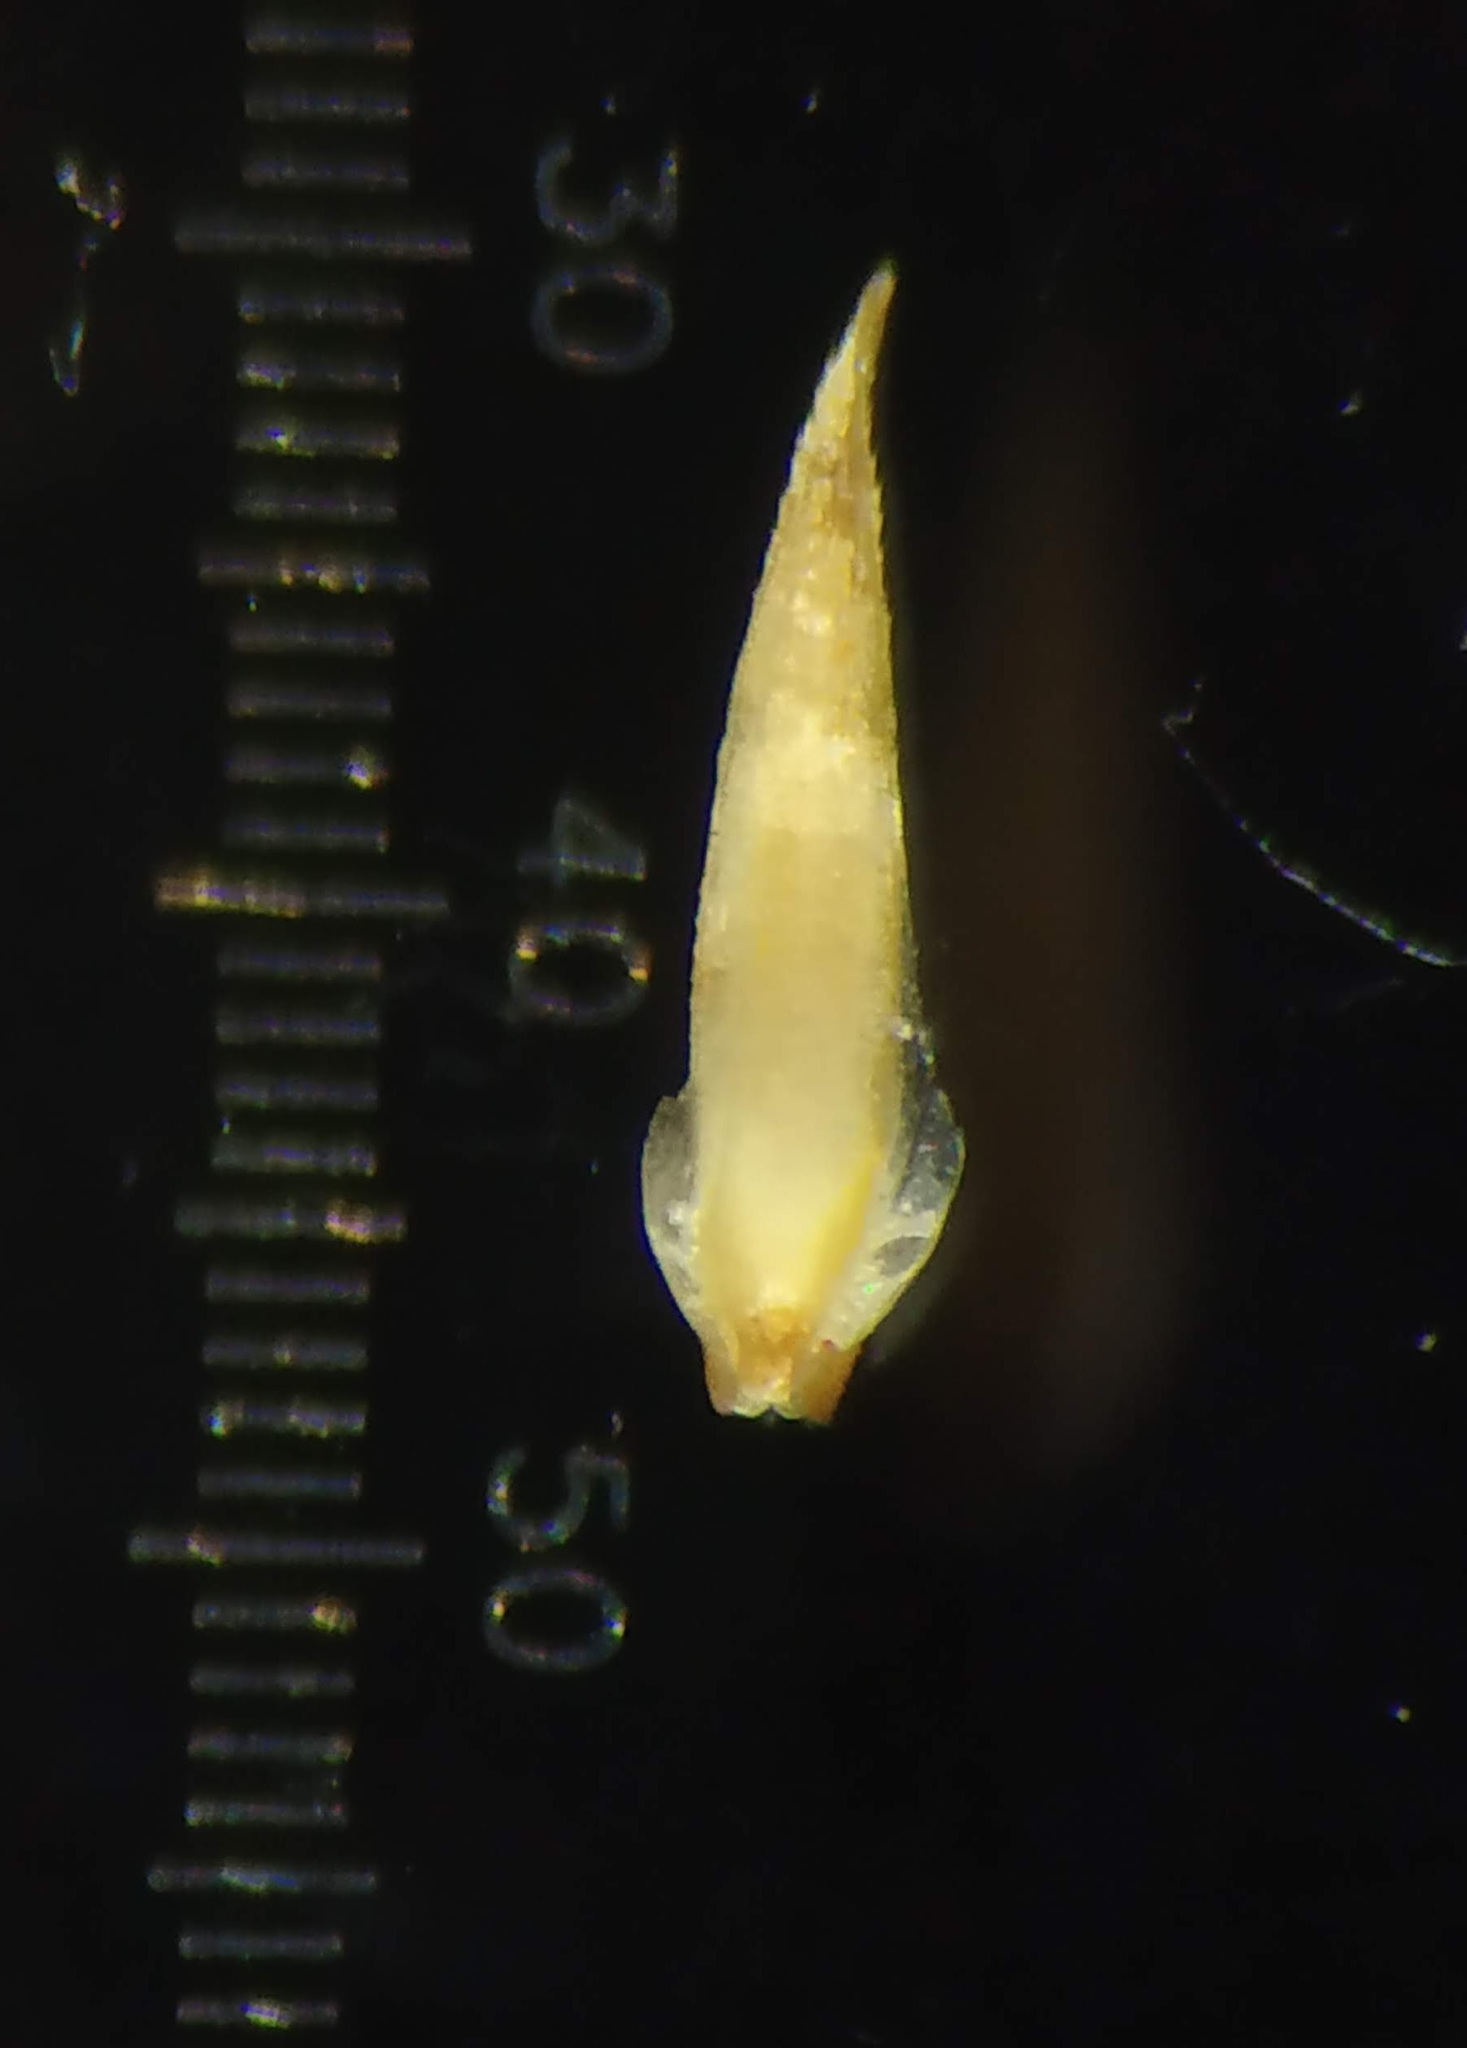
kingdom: Plantae
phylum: Tracheophyta
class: Liliopsida
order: Poales
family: Poaceae
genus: Oropetium
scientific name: Oropetium thomaeum
